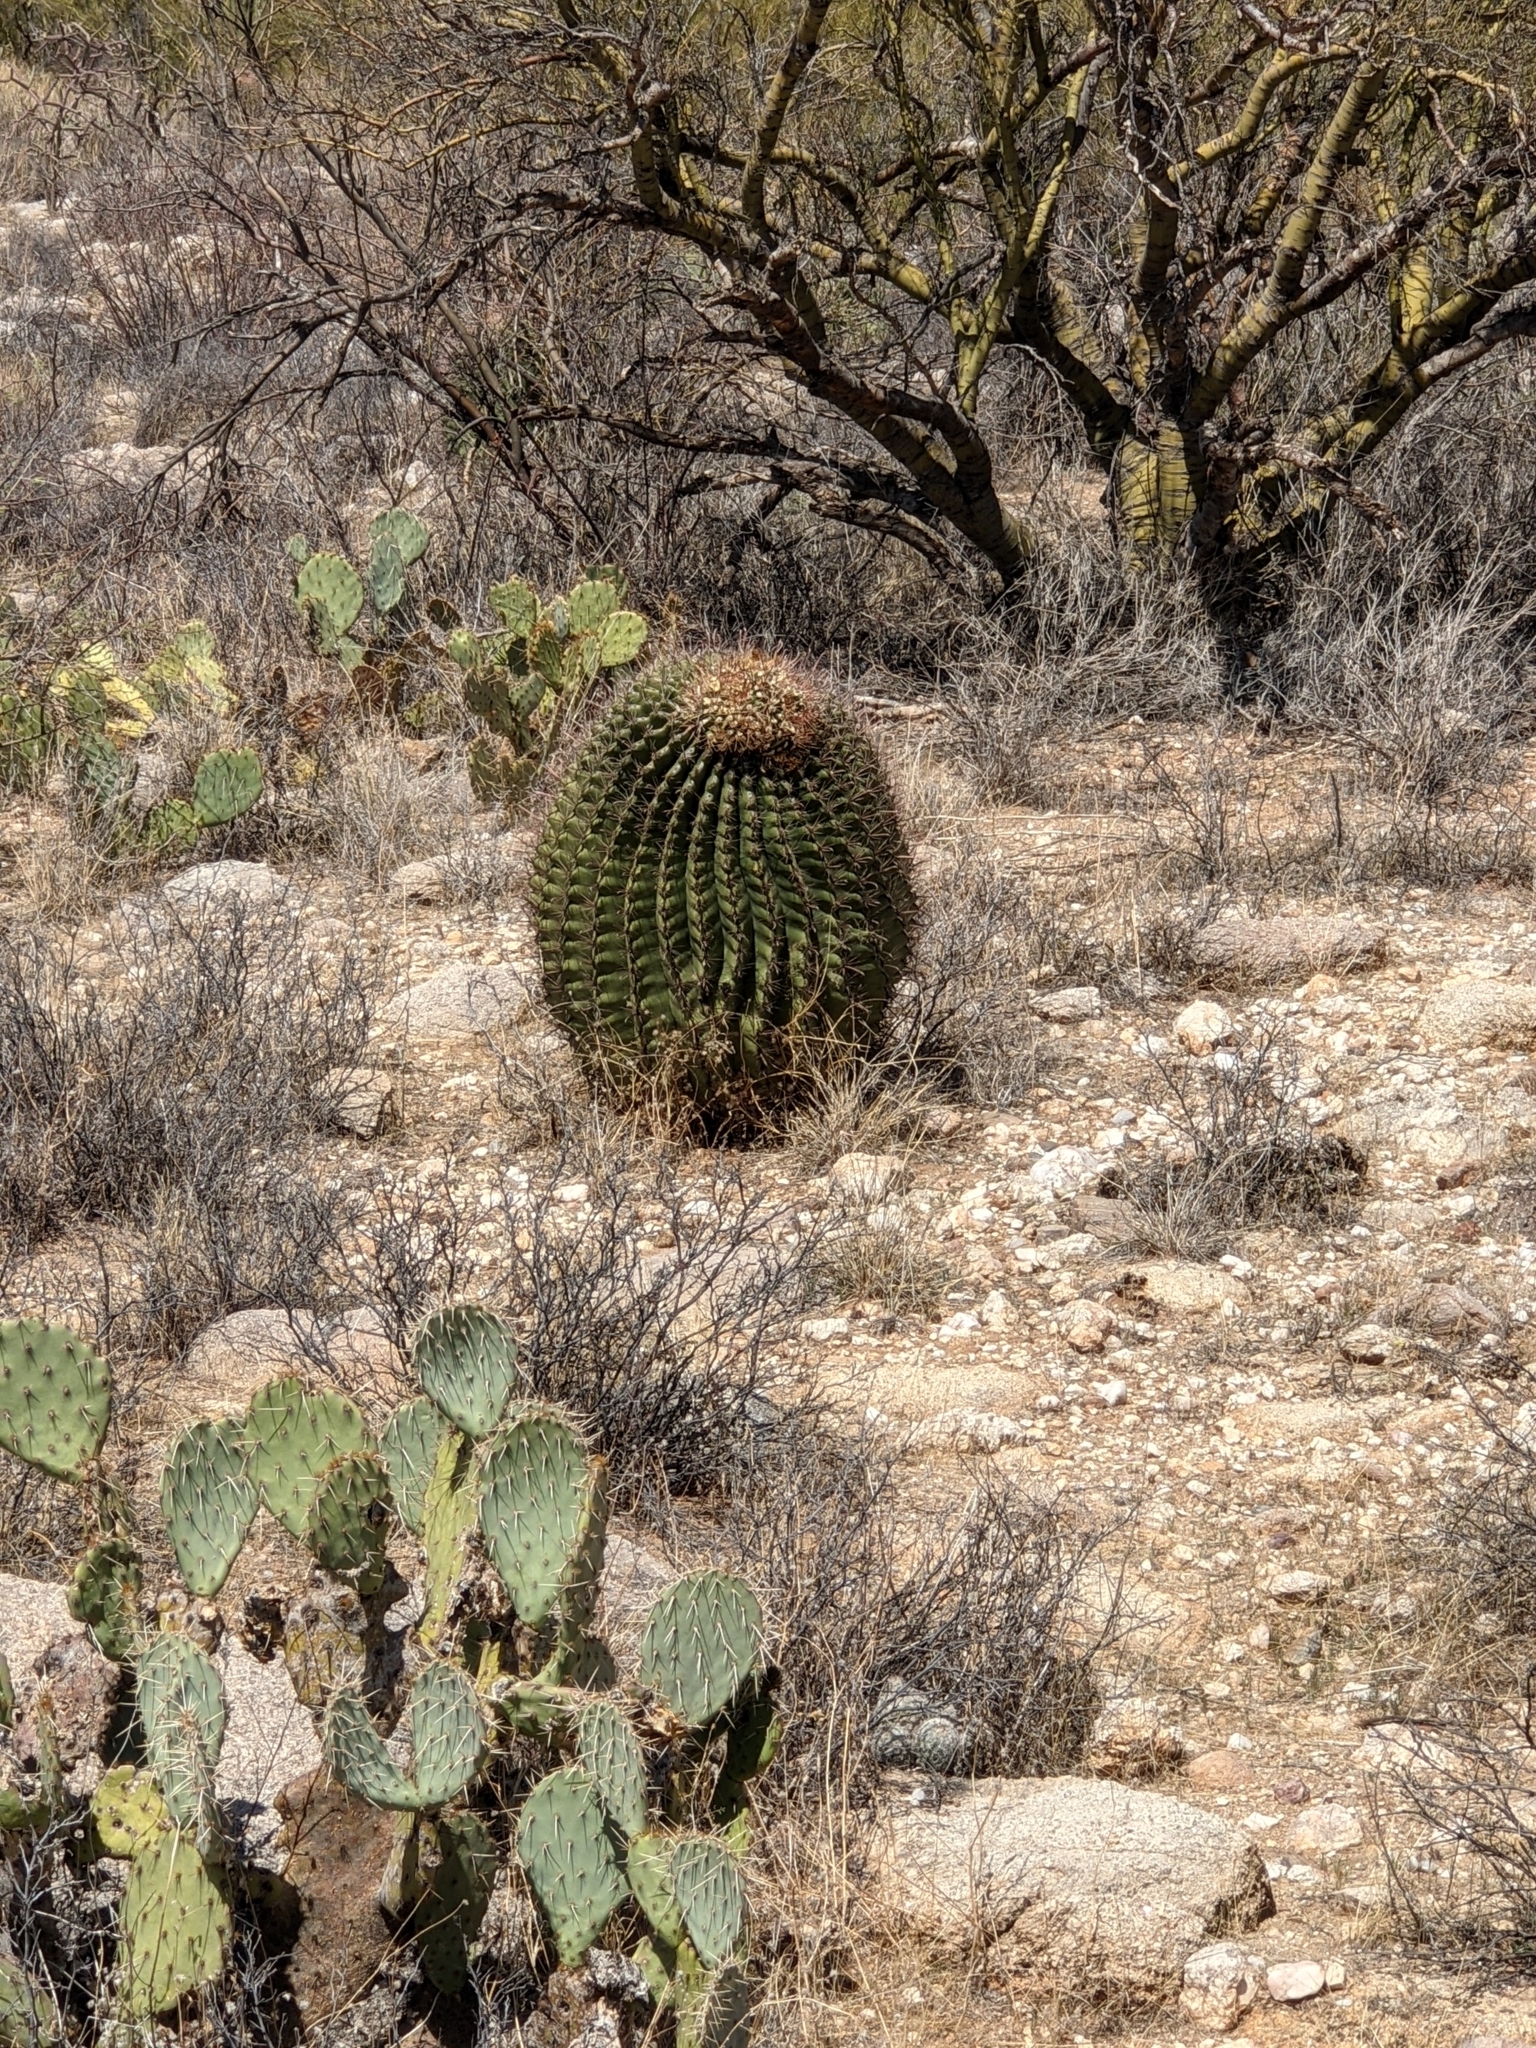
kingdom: Plantae
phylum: Tracheophyta
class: Magnoliopsida
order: Caryophyllales
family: Cactaceae
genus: Ferocactus
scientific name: Ferocactus wislizeni
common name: Candy barrel cactus
